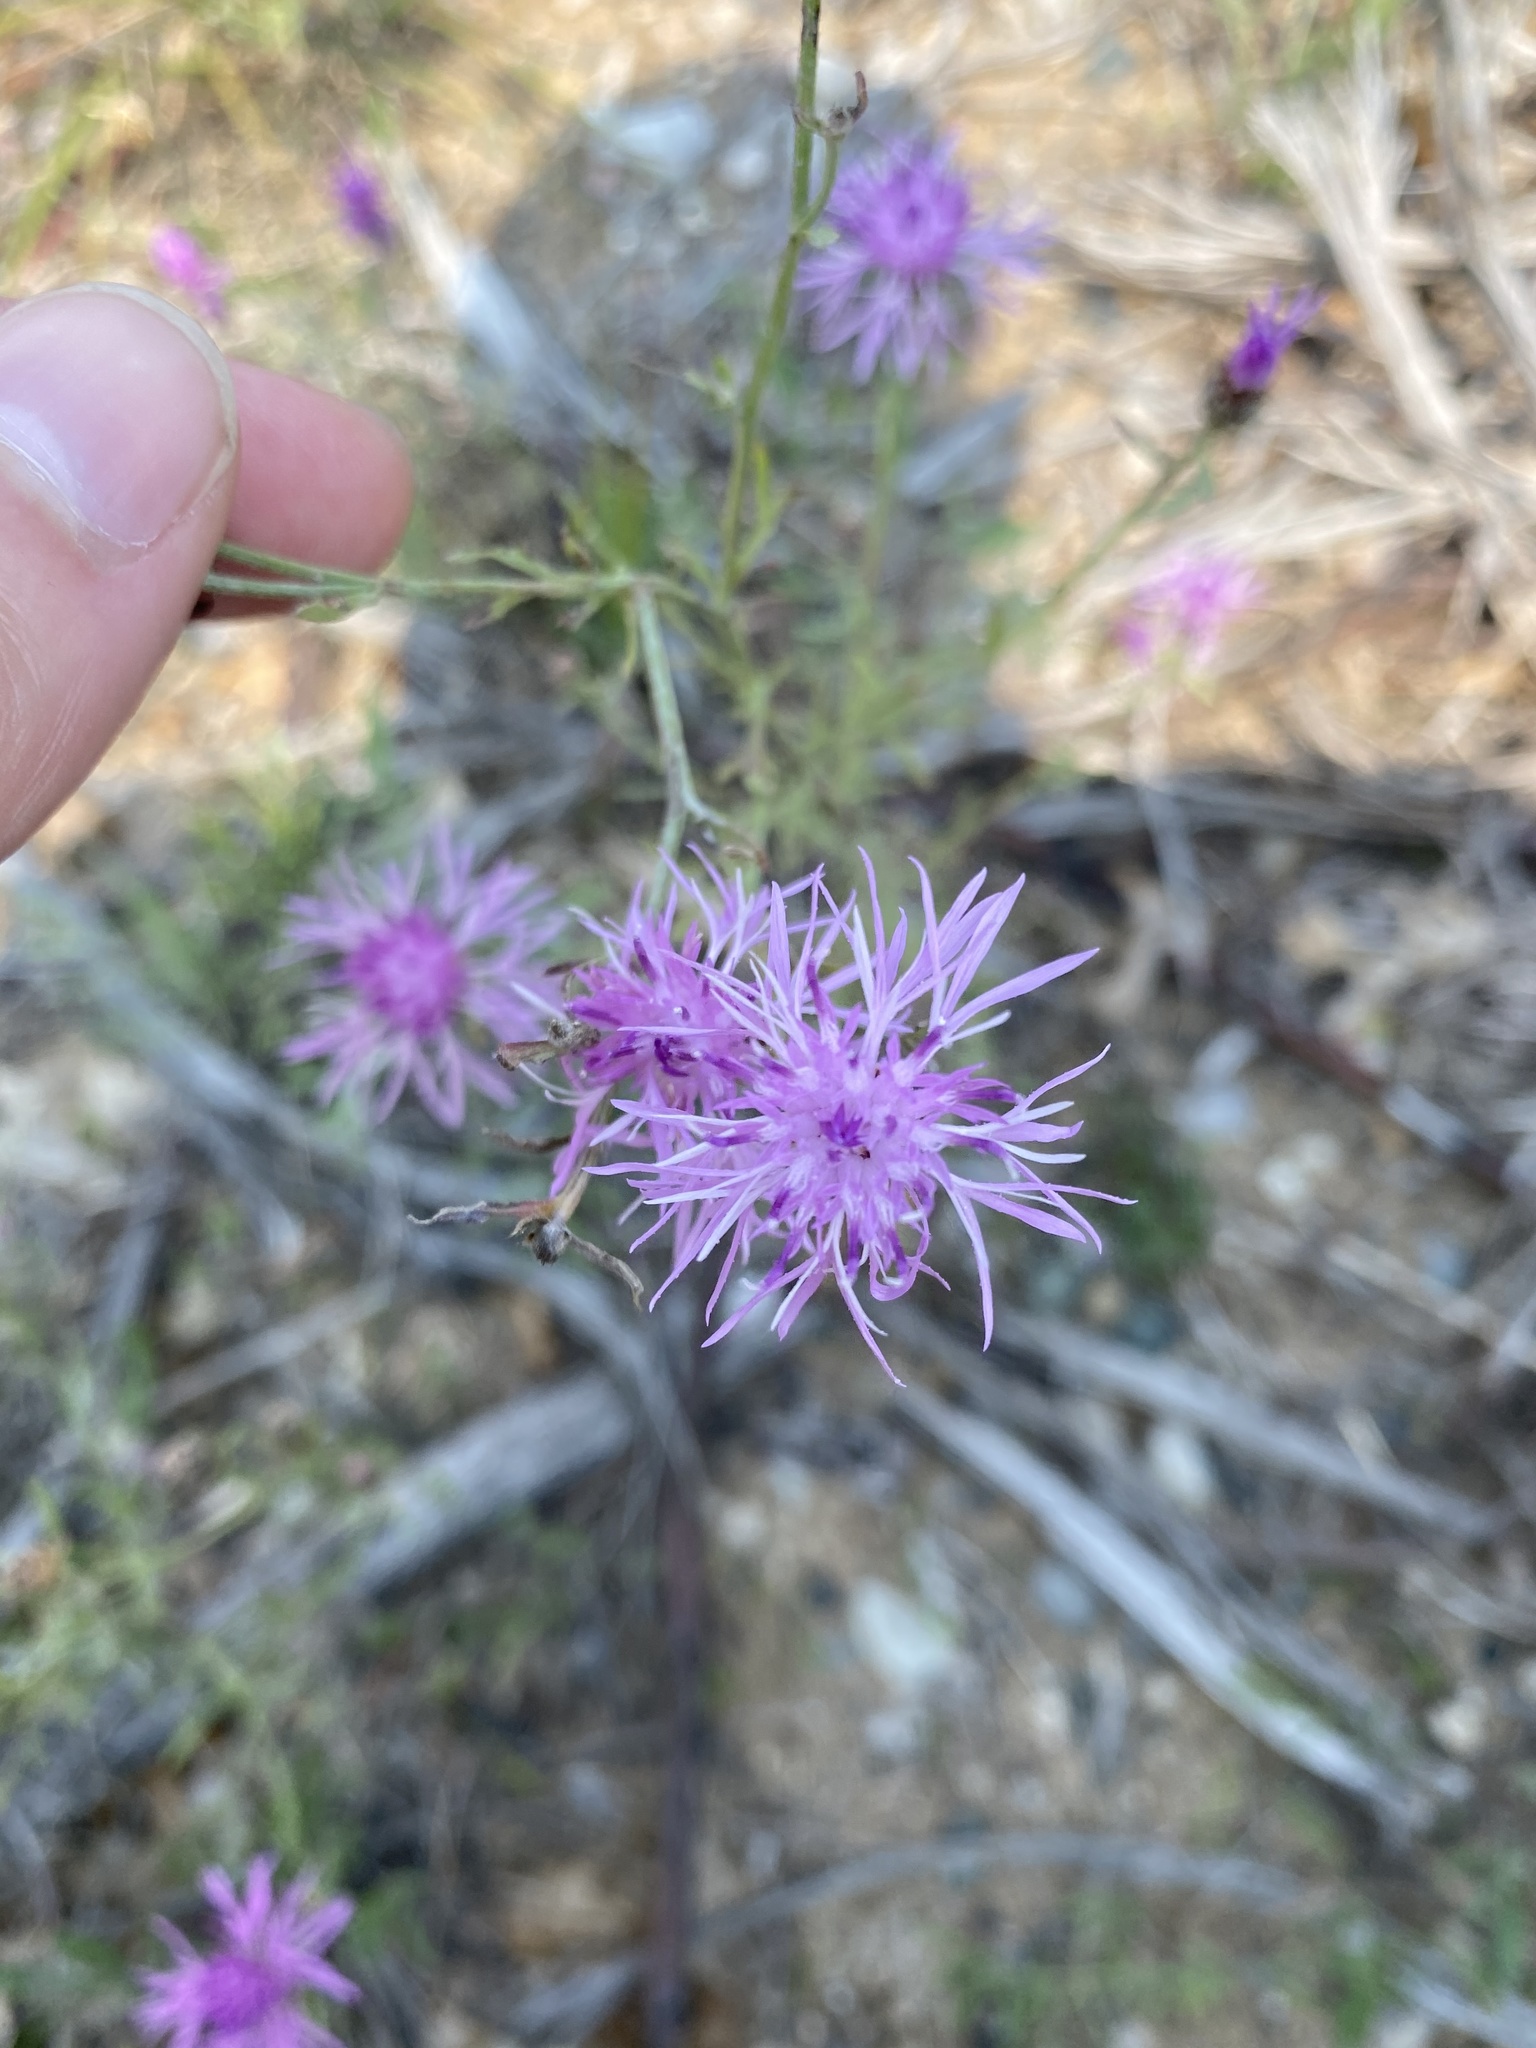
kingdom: Plantae
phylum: Tracheophyta
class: Magnoliopsida
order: Asterales
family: Asteraceae
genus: Centaurea
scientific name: Centaurea stoebe
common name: Spotted knapweed
